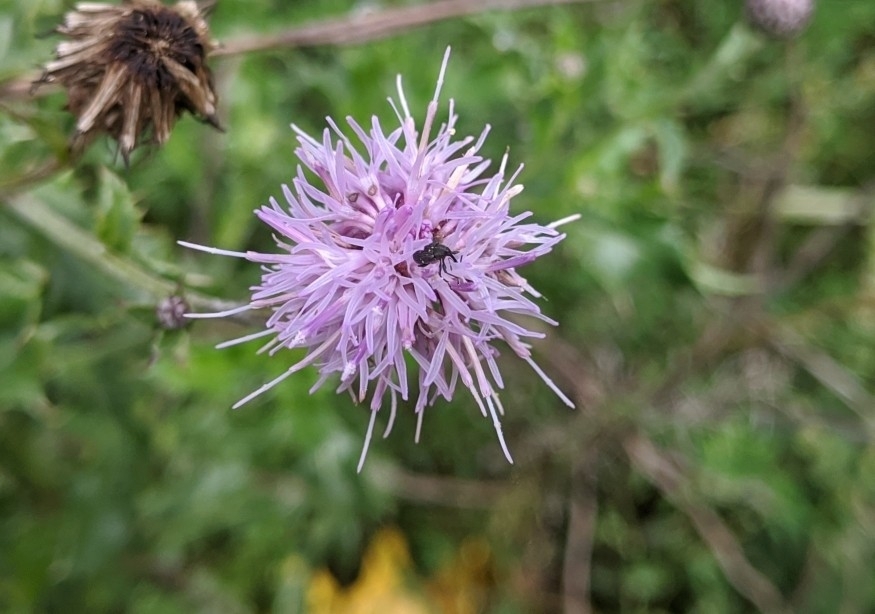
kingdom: Plantae
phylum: Tracheophyta
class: Magnoliopsida
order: Asterales
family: Asteraceae
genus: Cirsium
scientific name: Cirsium arvense
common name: Creeping thistle
